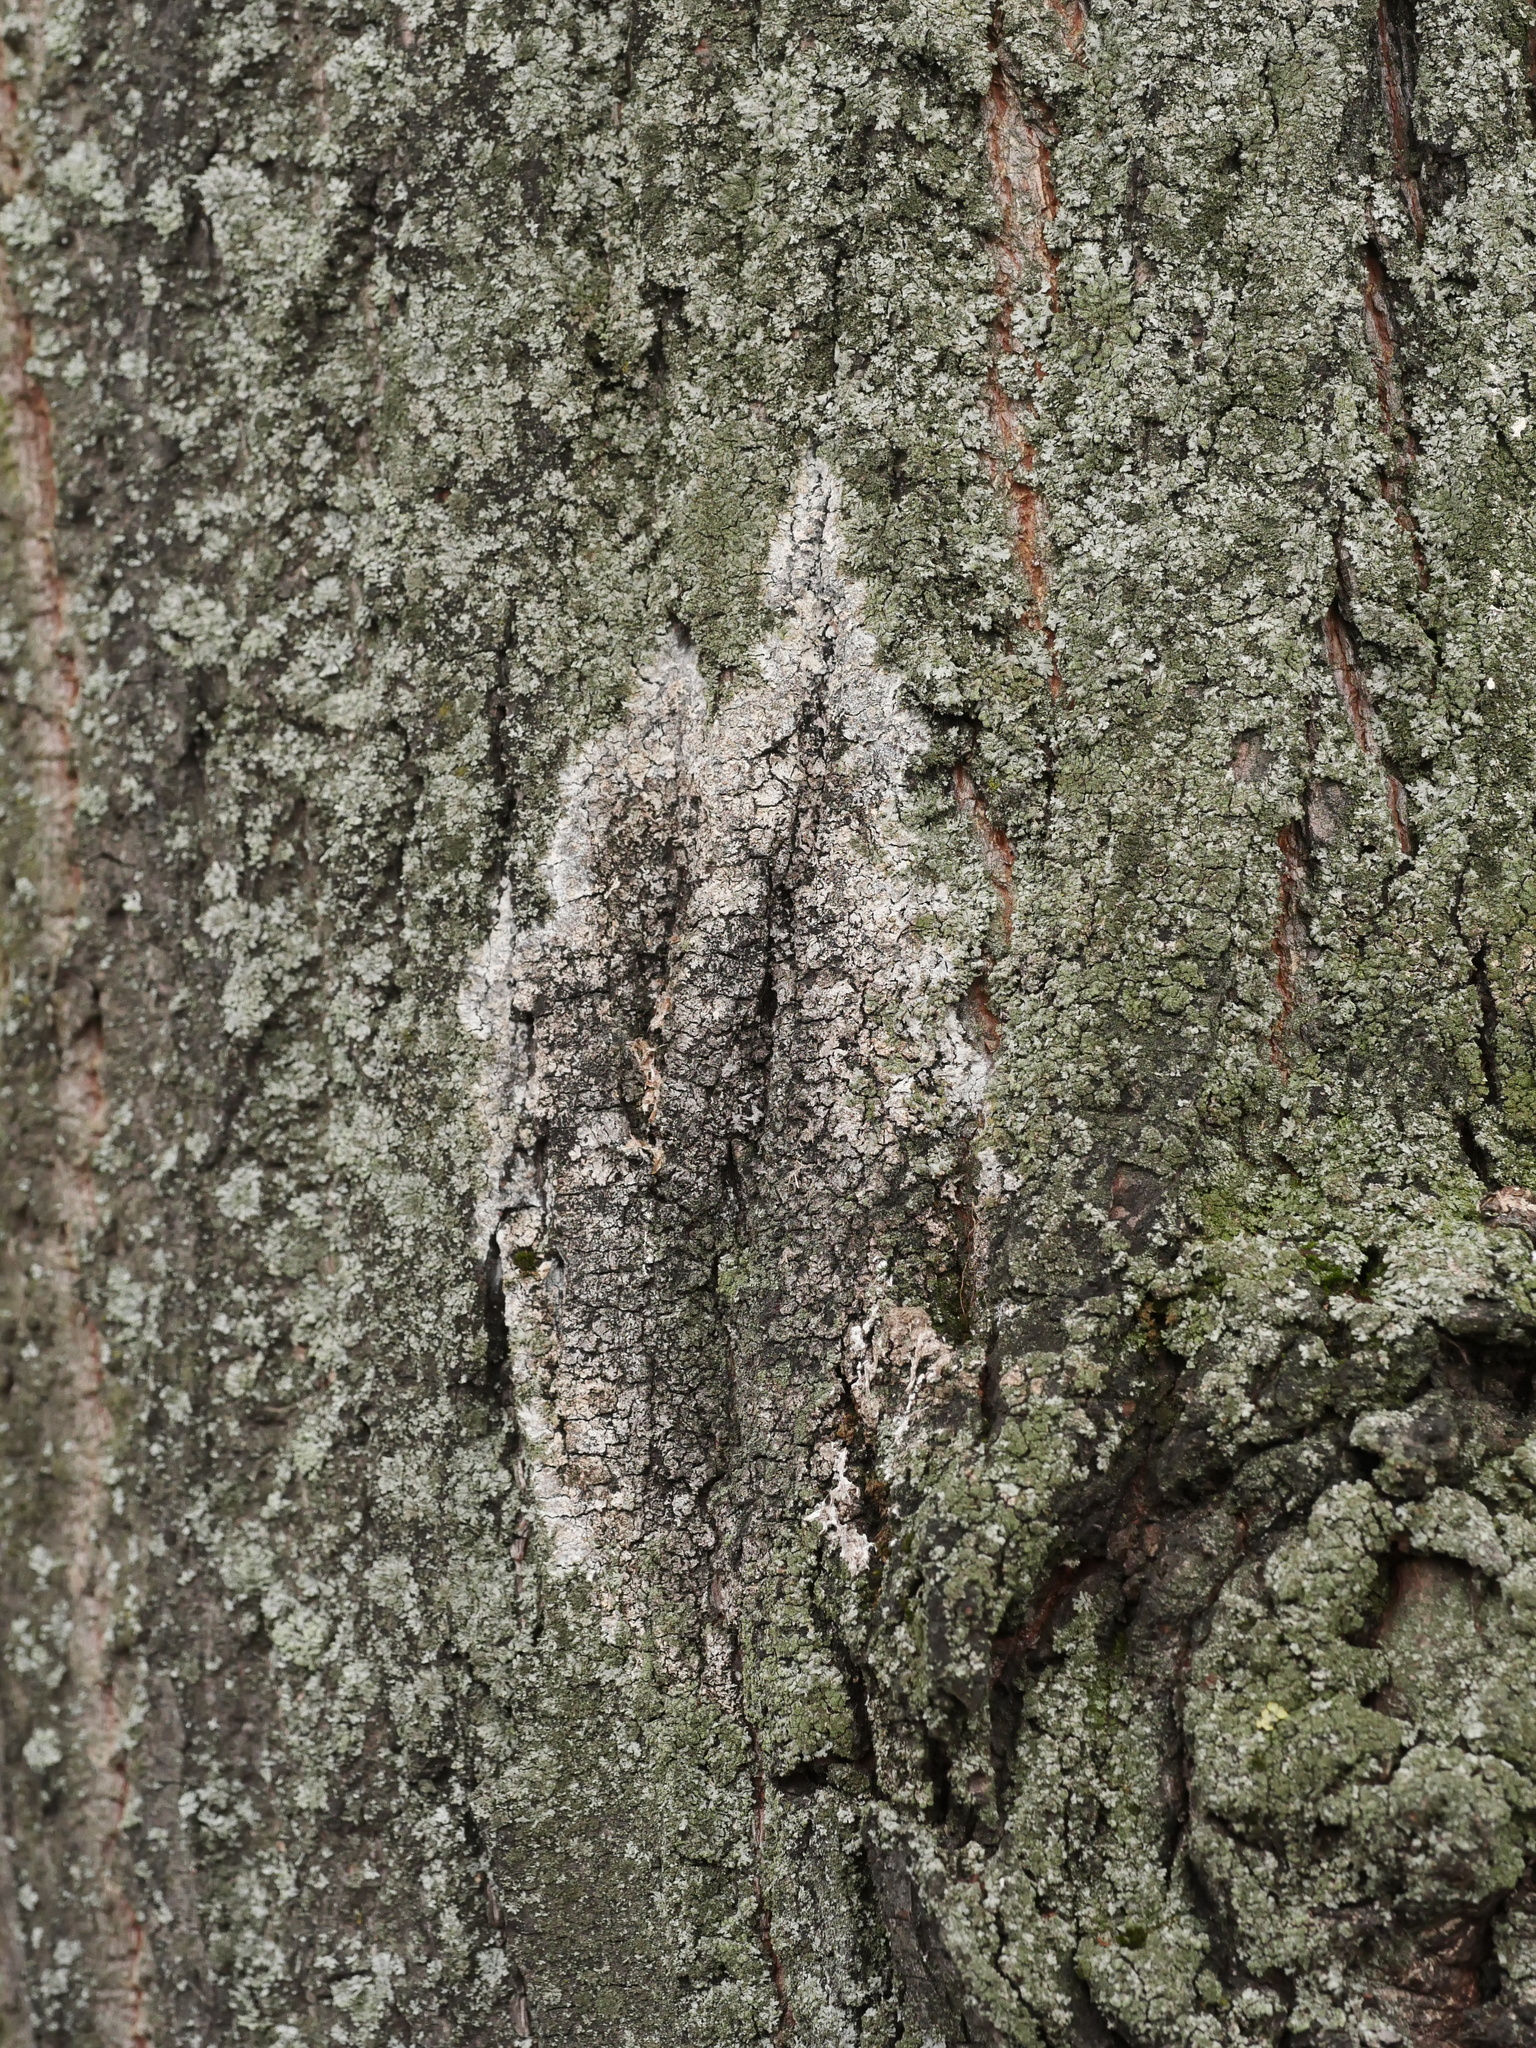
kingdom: Fungi
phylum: Basidiomycota
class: Agaricomycetes
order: Atheliales
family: Atheliaceae
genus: Athelia
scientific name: Athelia arachnoidea
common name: Candelabra duster
